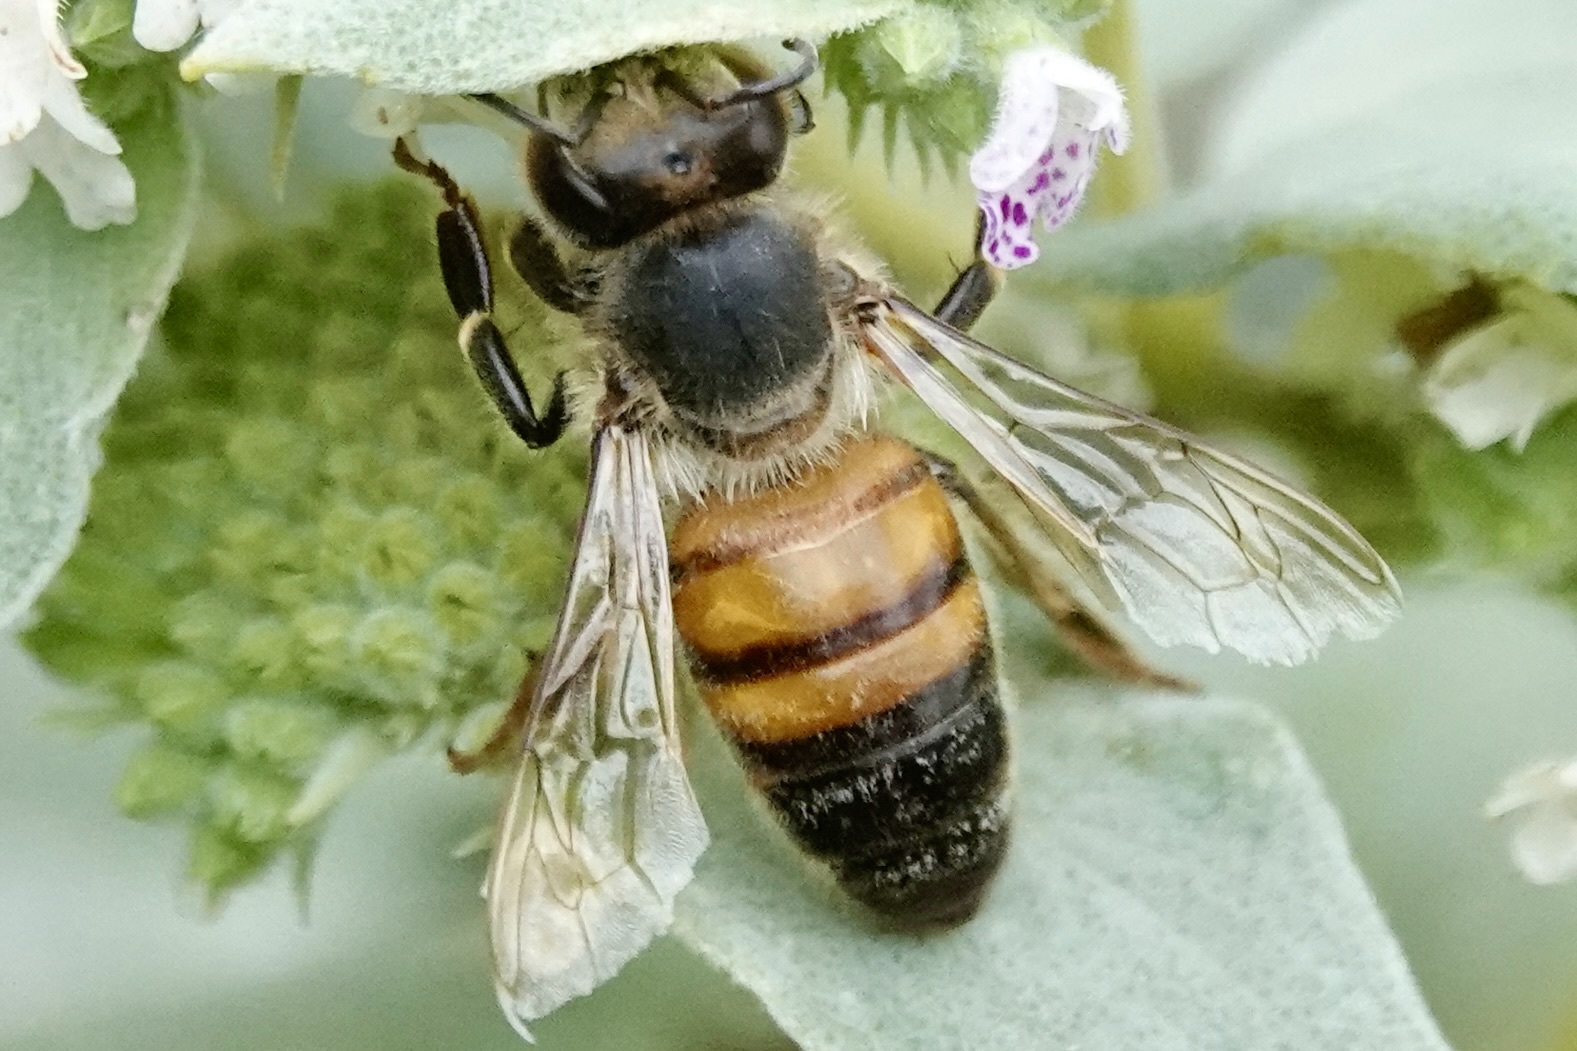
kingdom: Animalia
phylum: Arthropoda
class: Insecta
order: Hymenoptera
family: Apidae
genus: Apis
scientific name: Apis mellifera
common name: Honey bee
